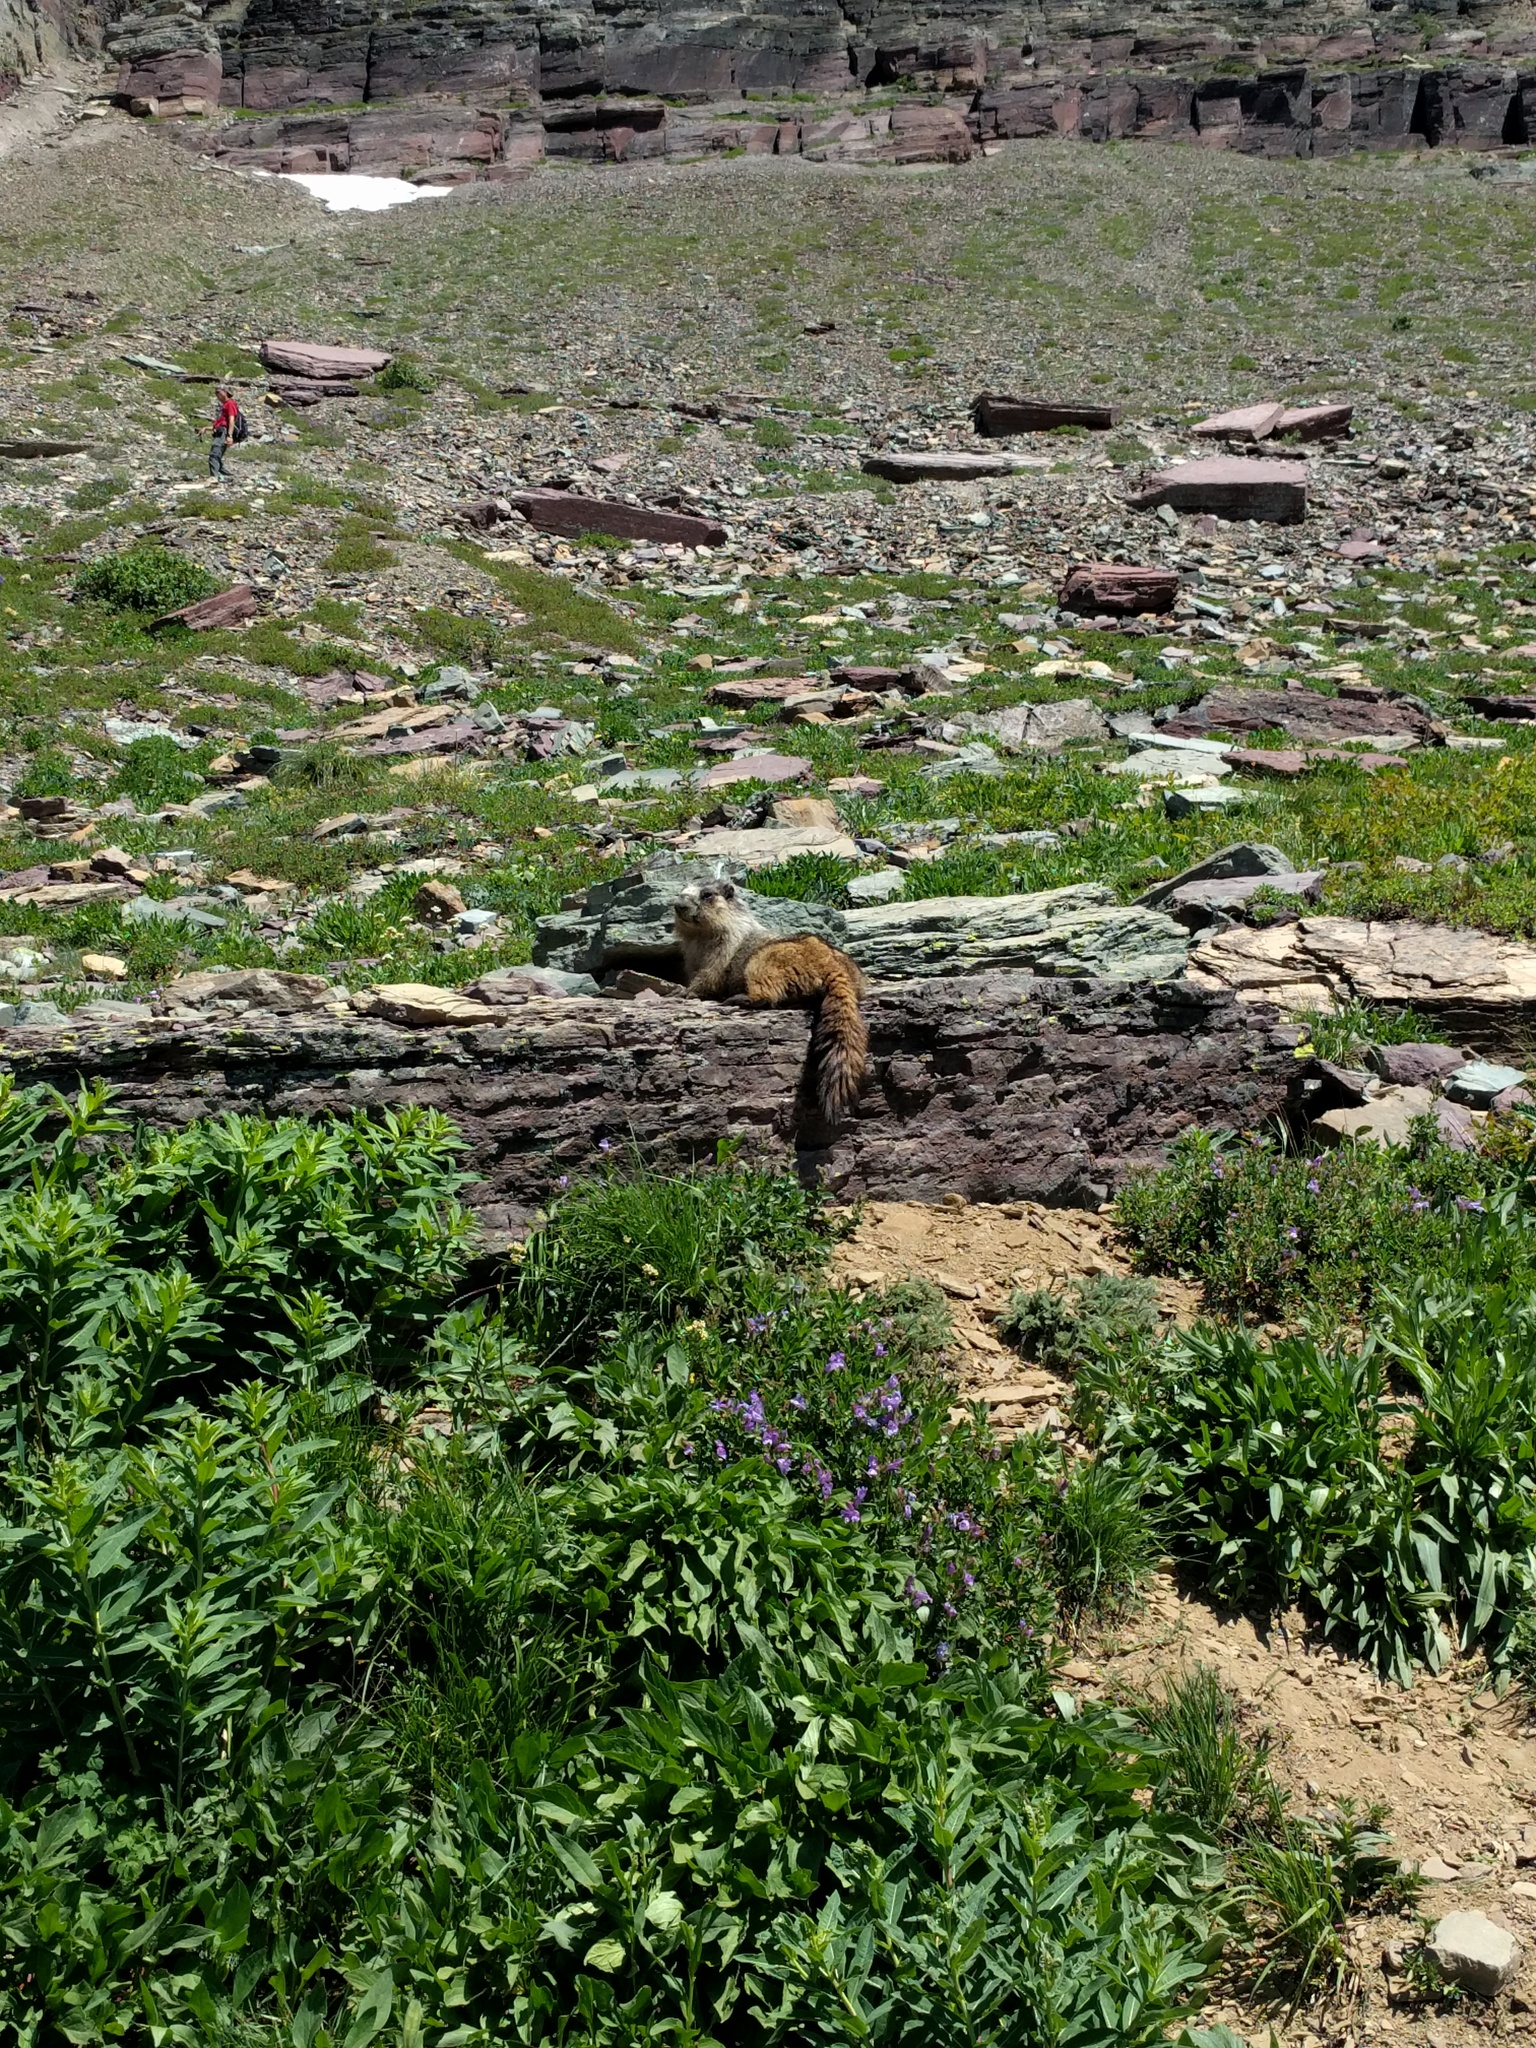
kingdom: Animalia
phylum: Chordata
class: Mammalia
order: Rodentia
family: Sciuridae
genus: Marmota
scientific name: Marmota caligata
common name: Hoary marmot
